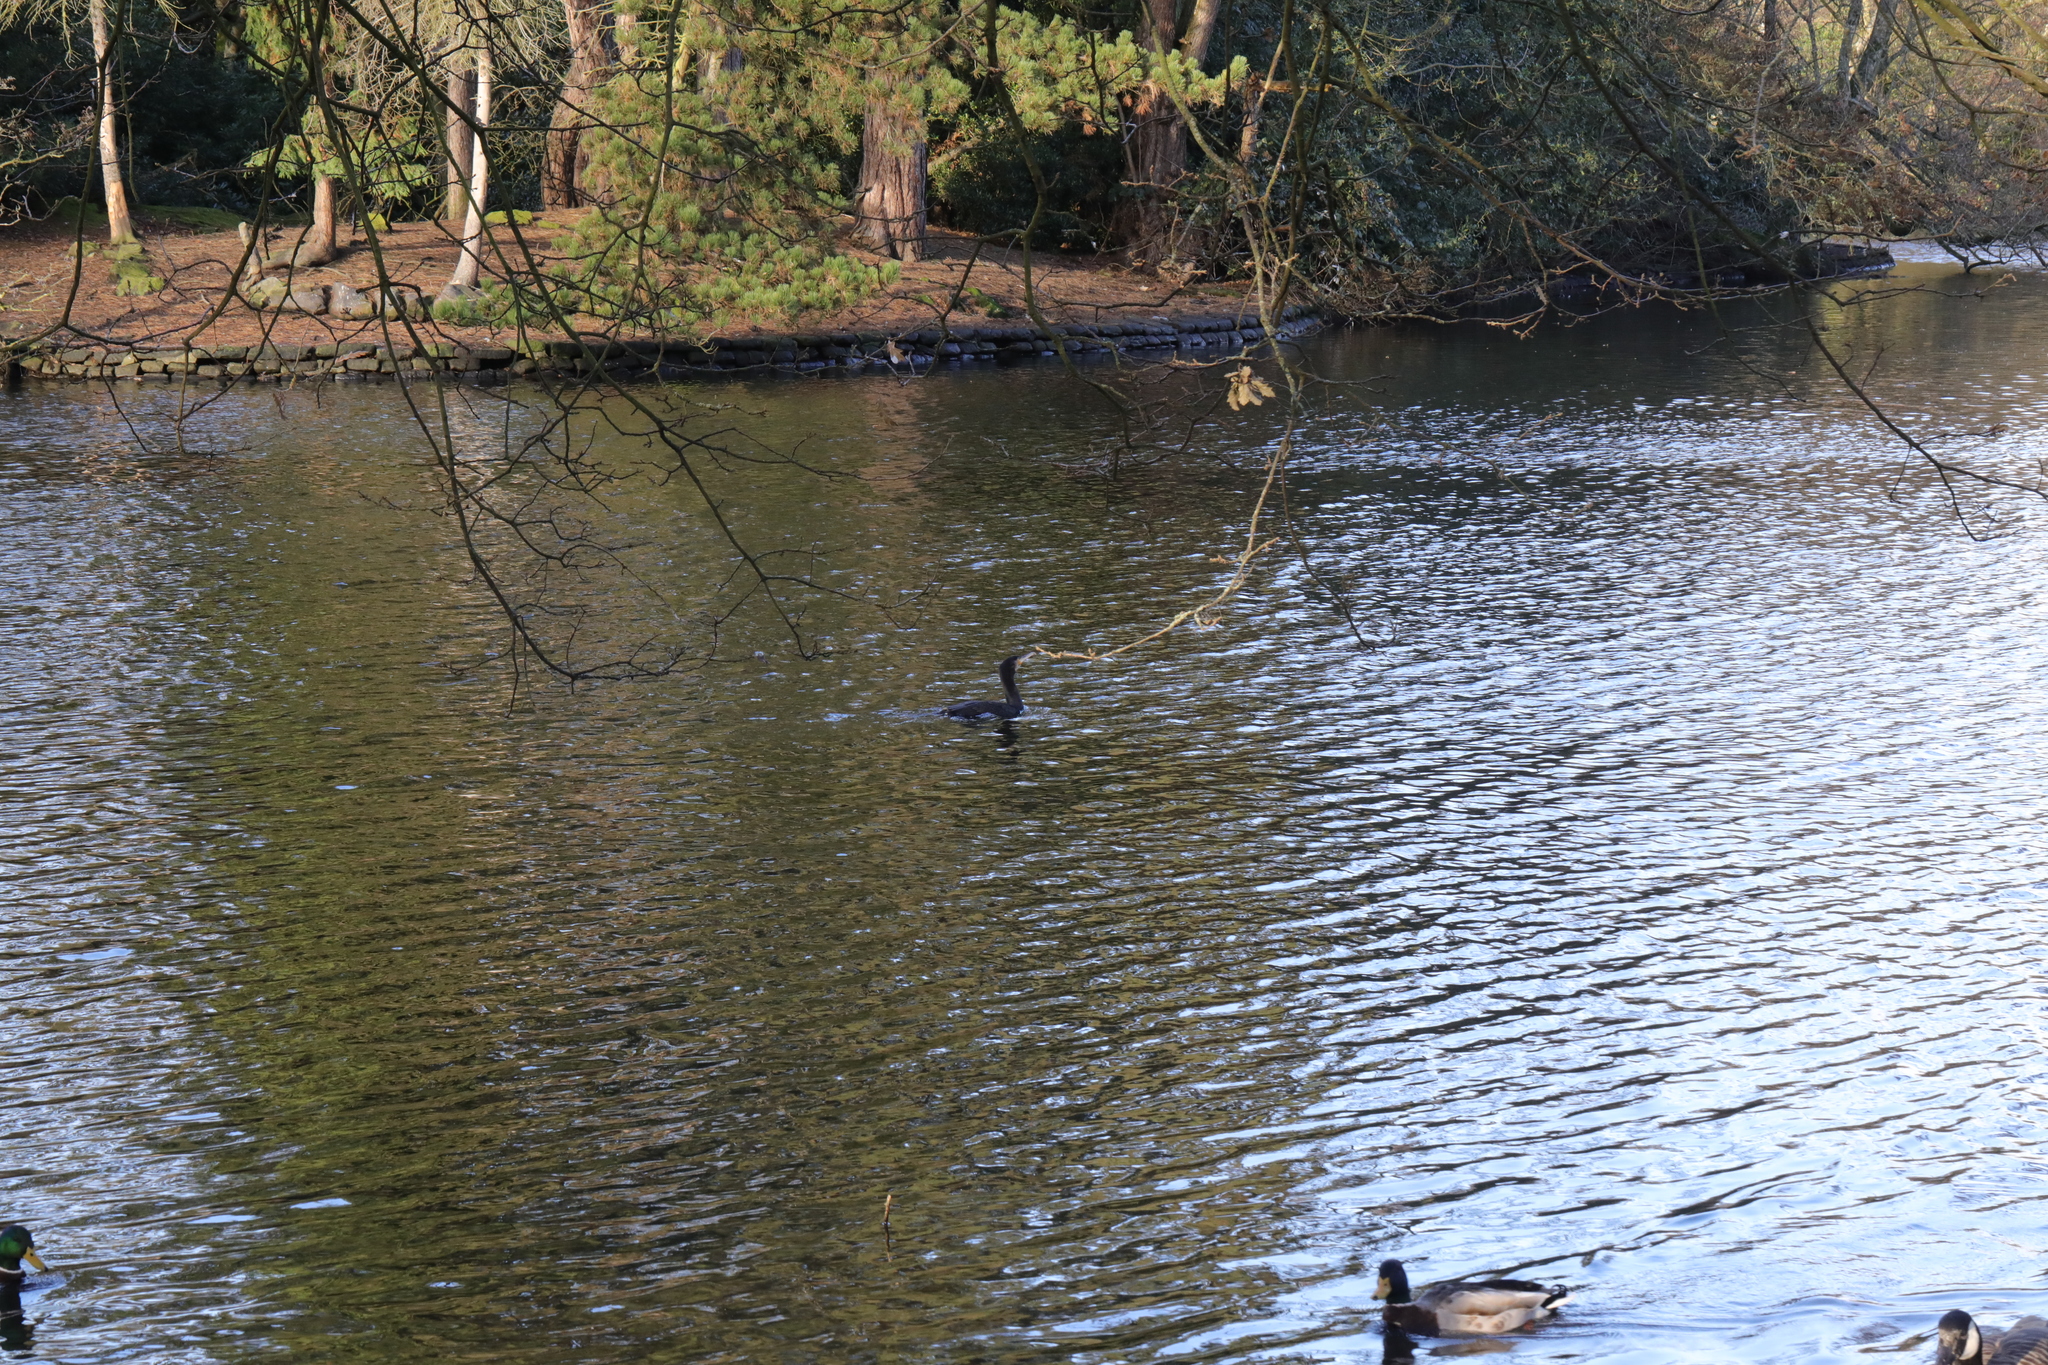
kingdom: Animalia
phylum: Chordata
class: Aves
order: Suliformes
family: Phalacrocoracidae
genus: Phalacrocorax
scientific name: Phalacrocorax carbo
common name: Great cormorant
